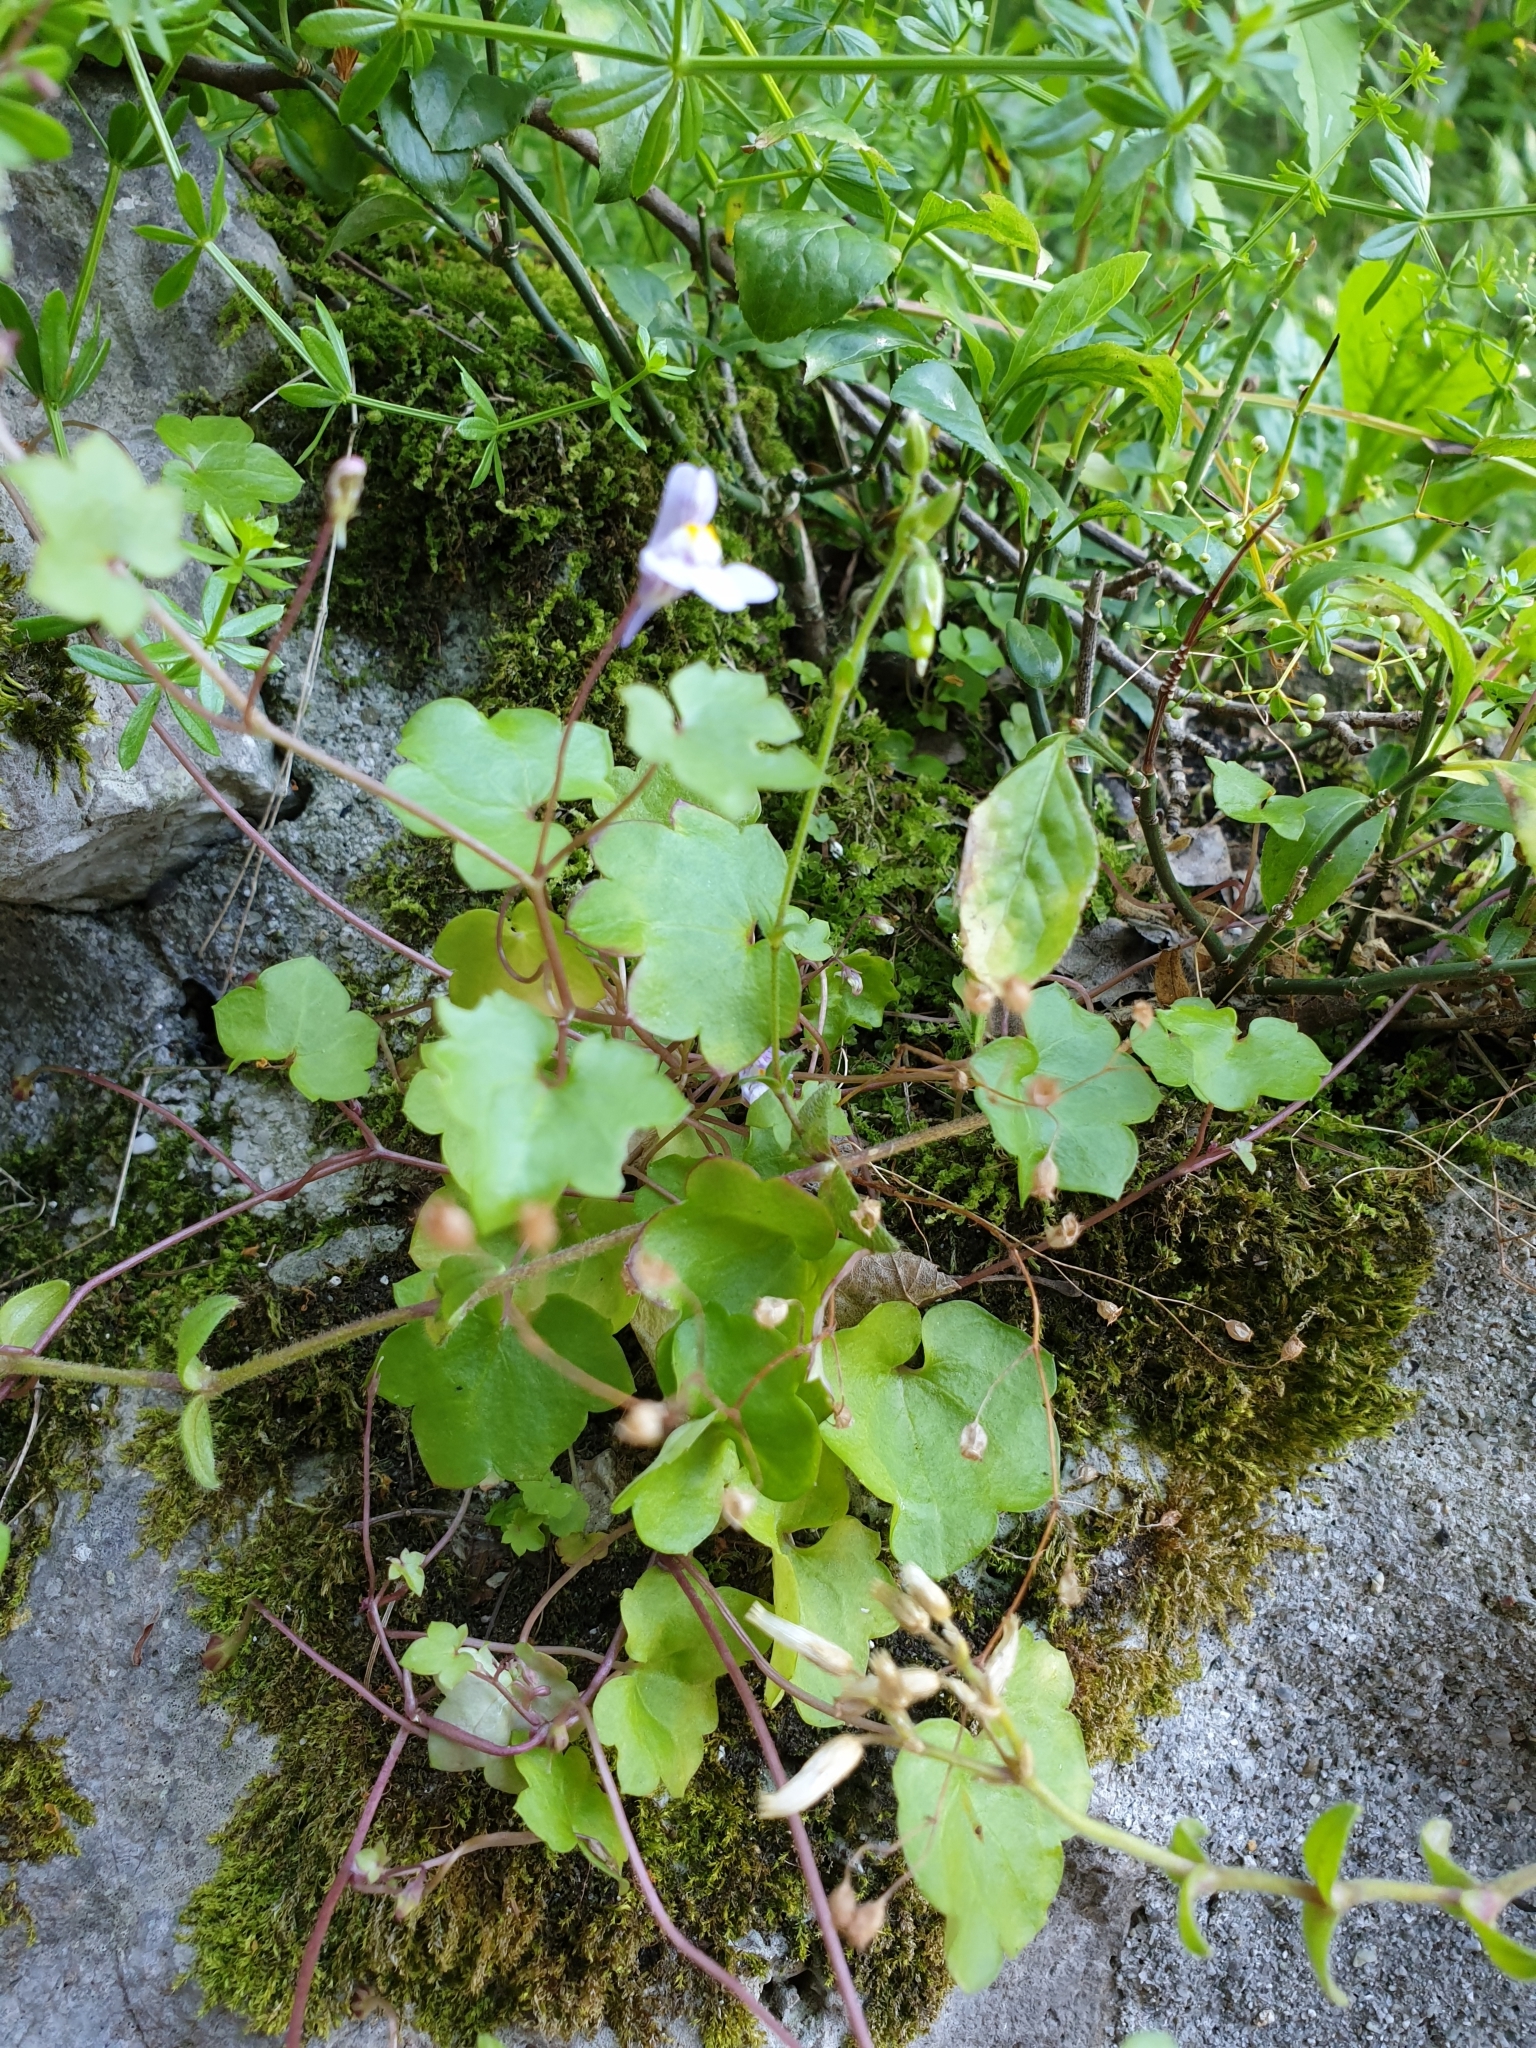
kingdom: Plantae
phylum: Tracheophyta
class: Magnoliopsida
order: Lamiales
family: Plantaginaceae
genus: Cymbalaria
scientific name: Cymbalaria muralis
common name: Ivy-leaved toadflax
